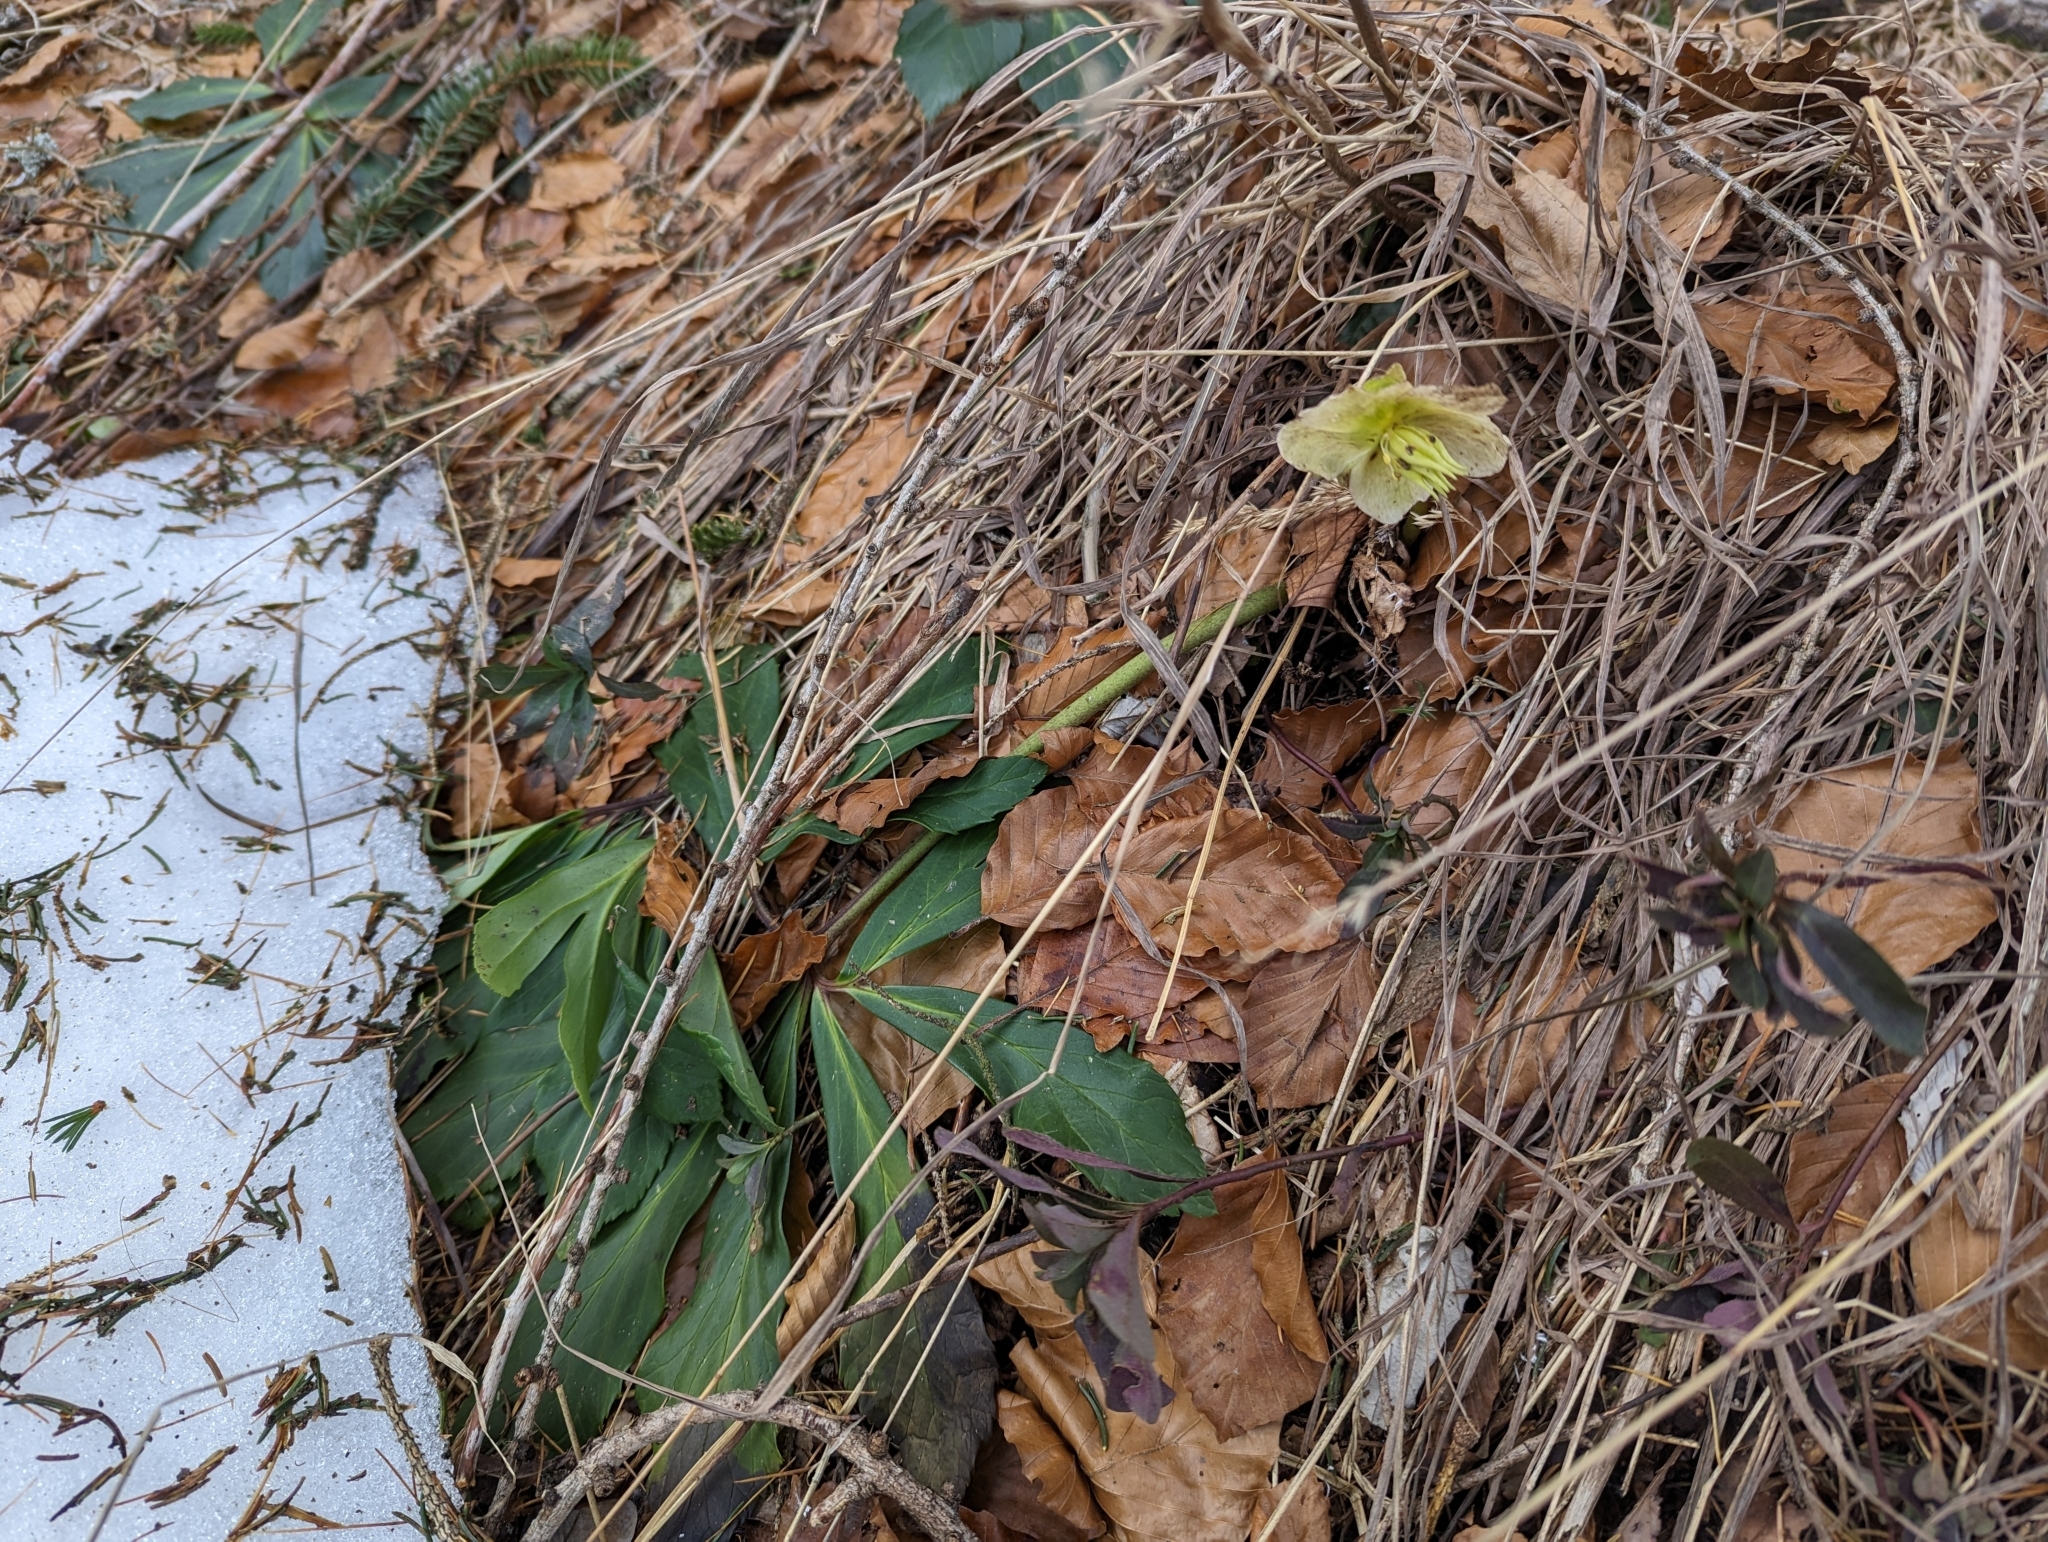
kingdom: Plantae
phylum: Tracheophyta
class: Magnoliopsida
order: Ranunculales
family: Ranunculaceae
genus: Helleborus
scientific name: Helleborus niger
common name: Black hellebore
